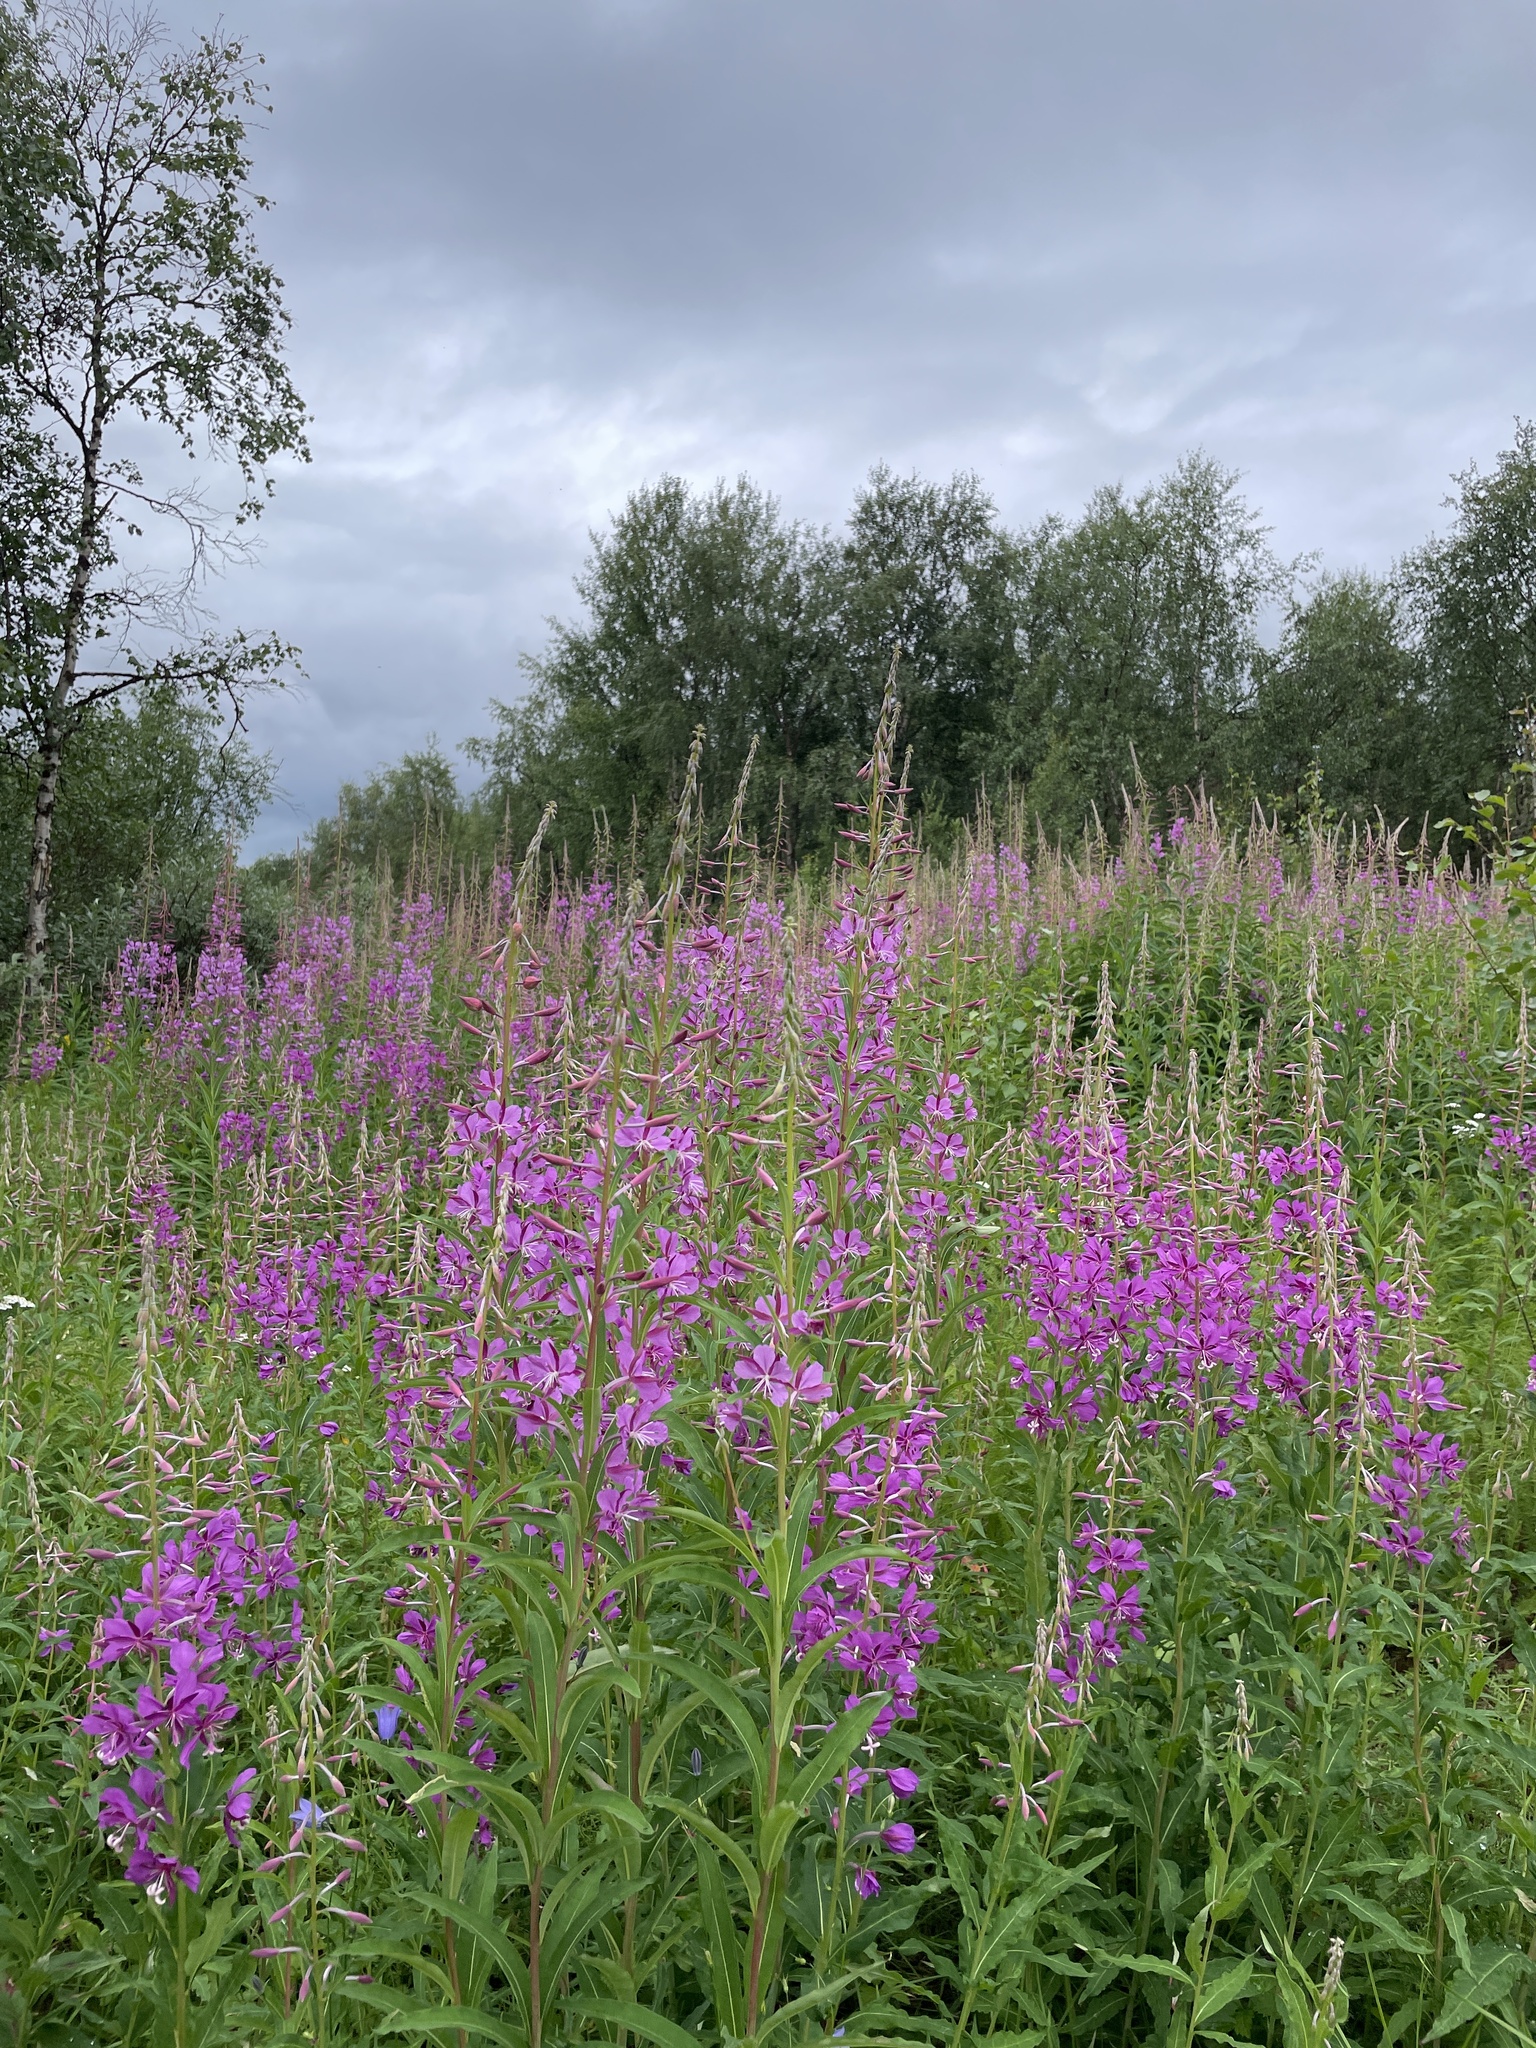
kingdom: Plantae
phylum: Tracheophyta
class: Magnoliopsida
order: Myrtales
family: Onagraceae
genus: Chamaenerion
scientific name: Chamaenerion angustifolium
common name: Fireweed
